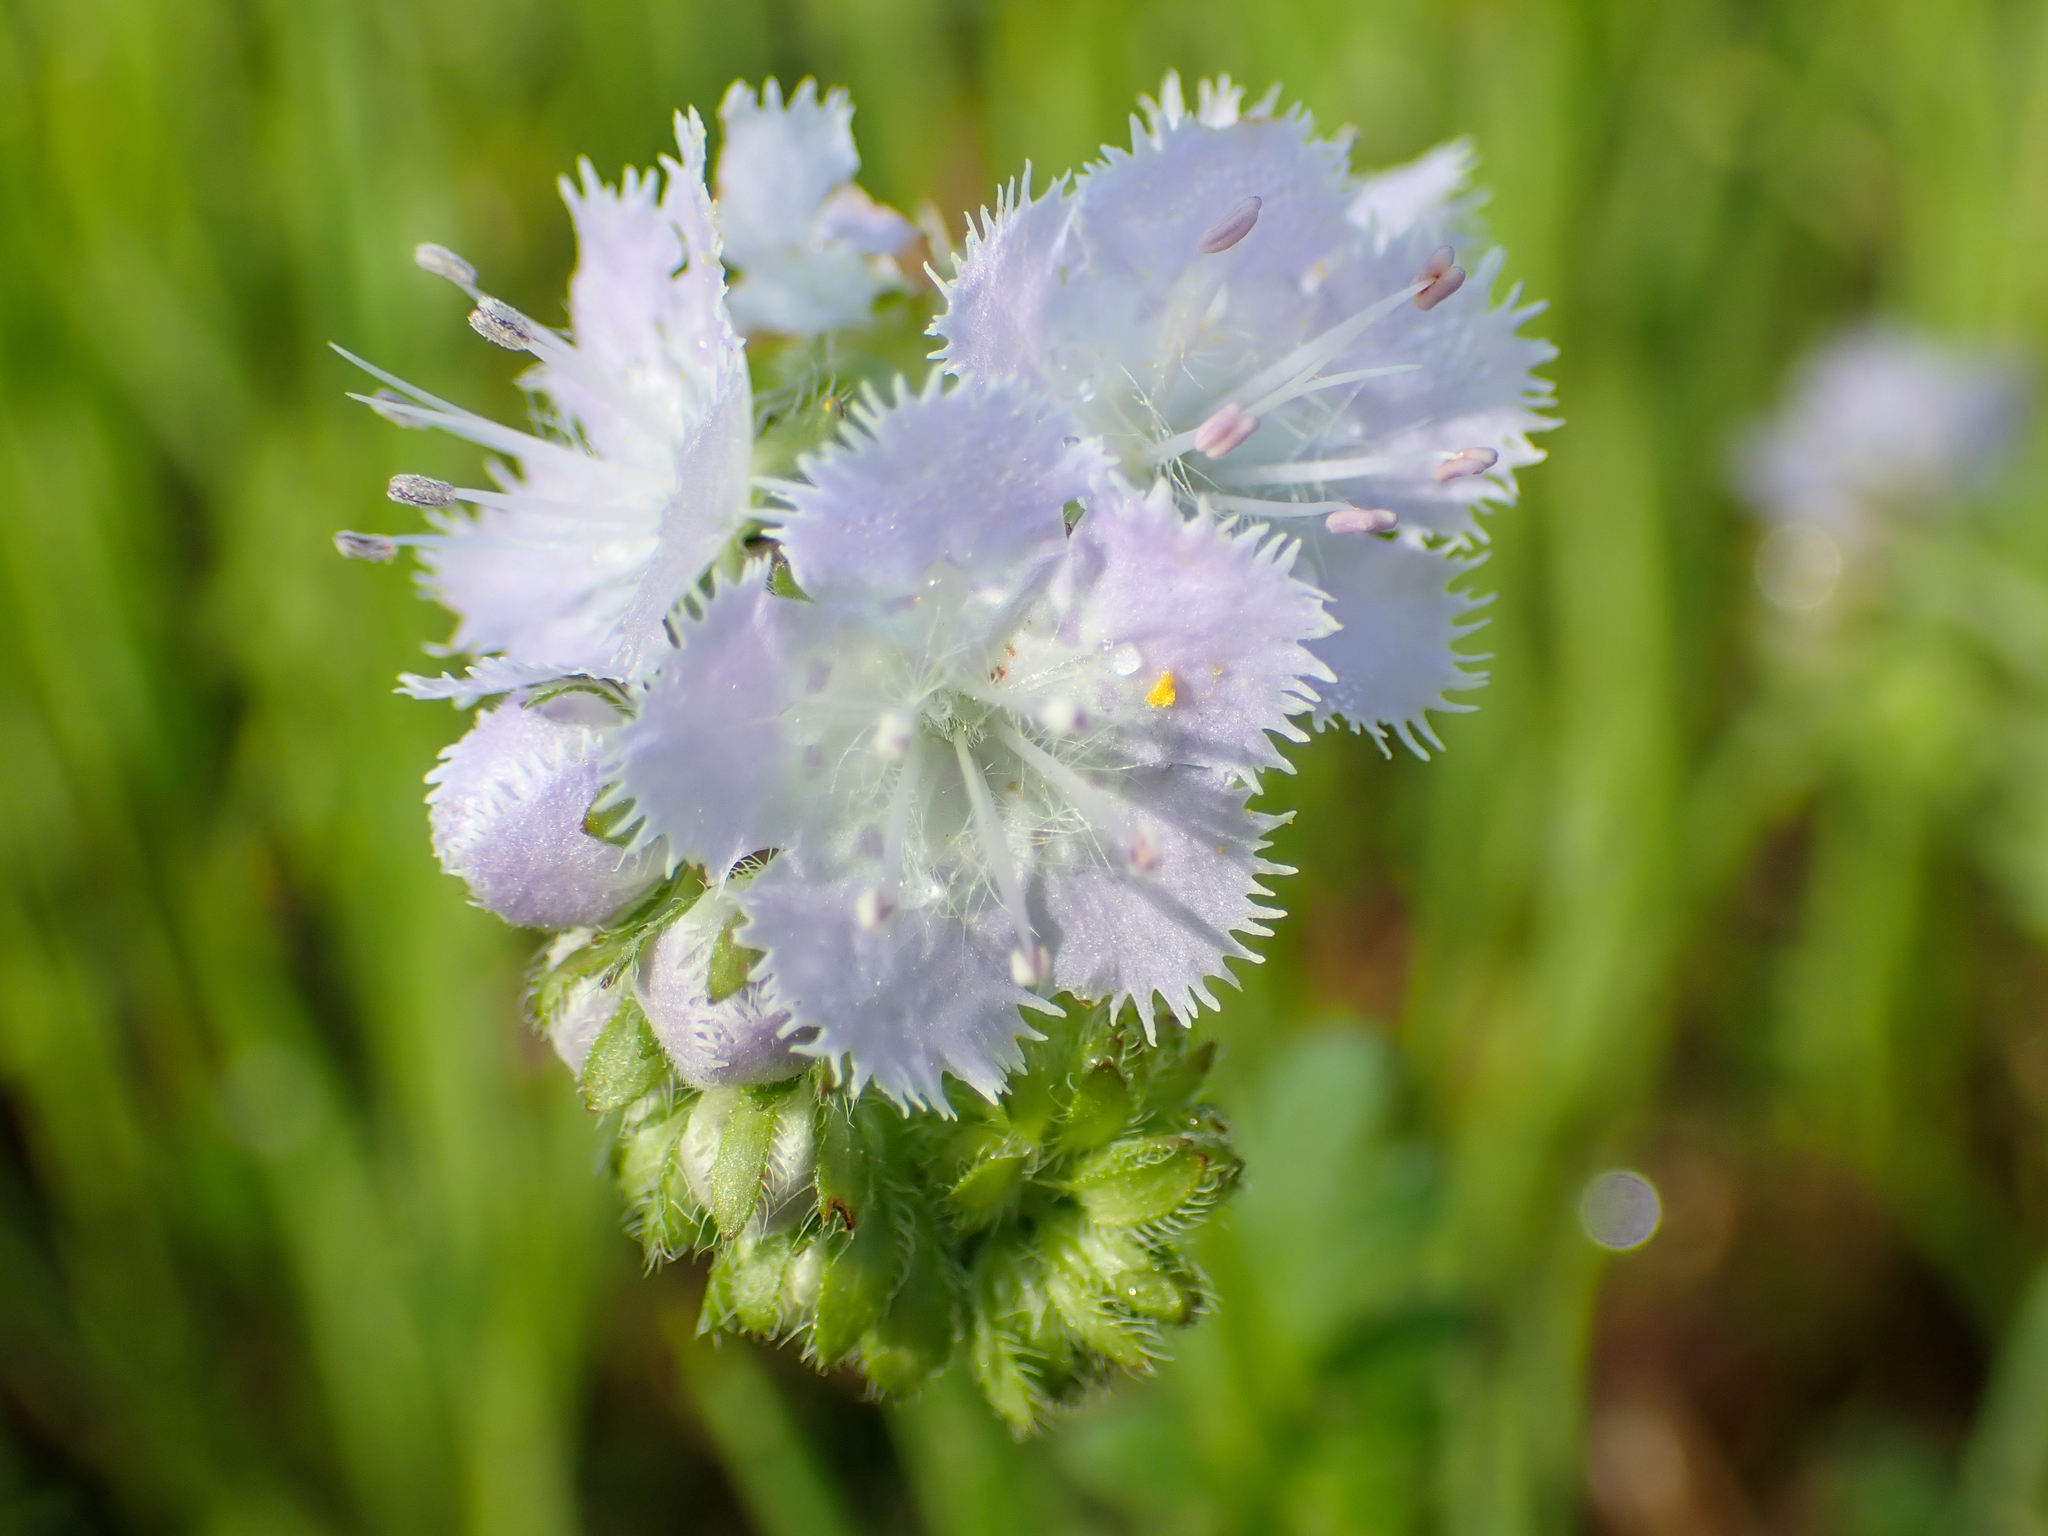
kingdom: Plantae
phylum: Tracheophyta
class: Magnoliopsida
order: Boraginales
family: Hydrophyllaceae
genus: Phacelia
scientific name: Phacelia purshii
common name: Miami-mist
